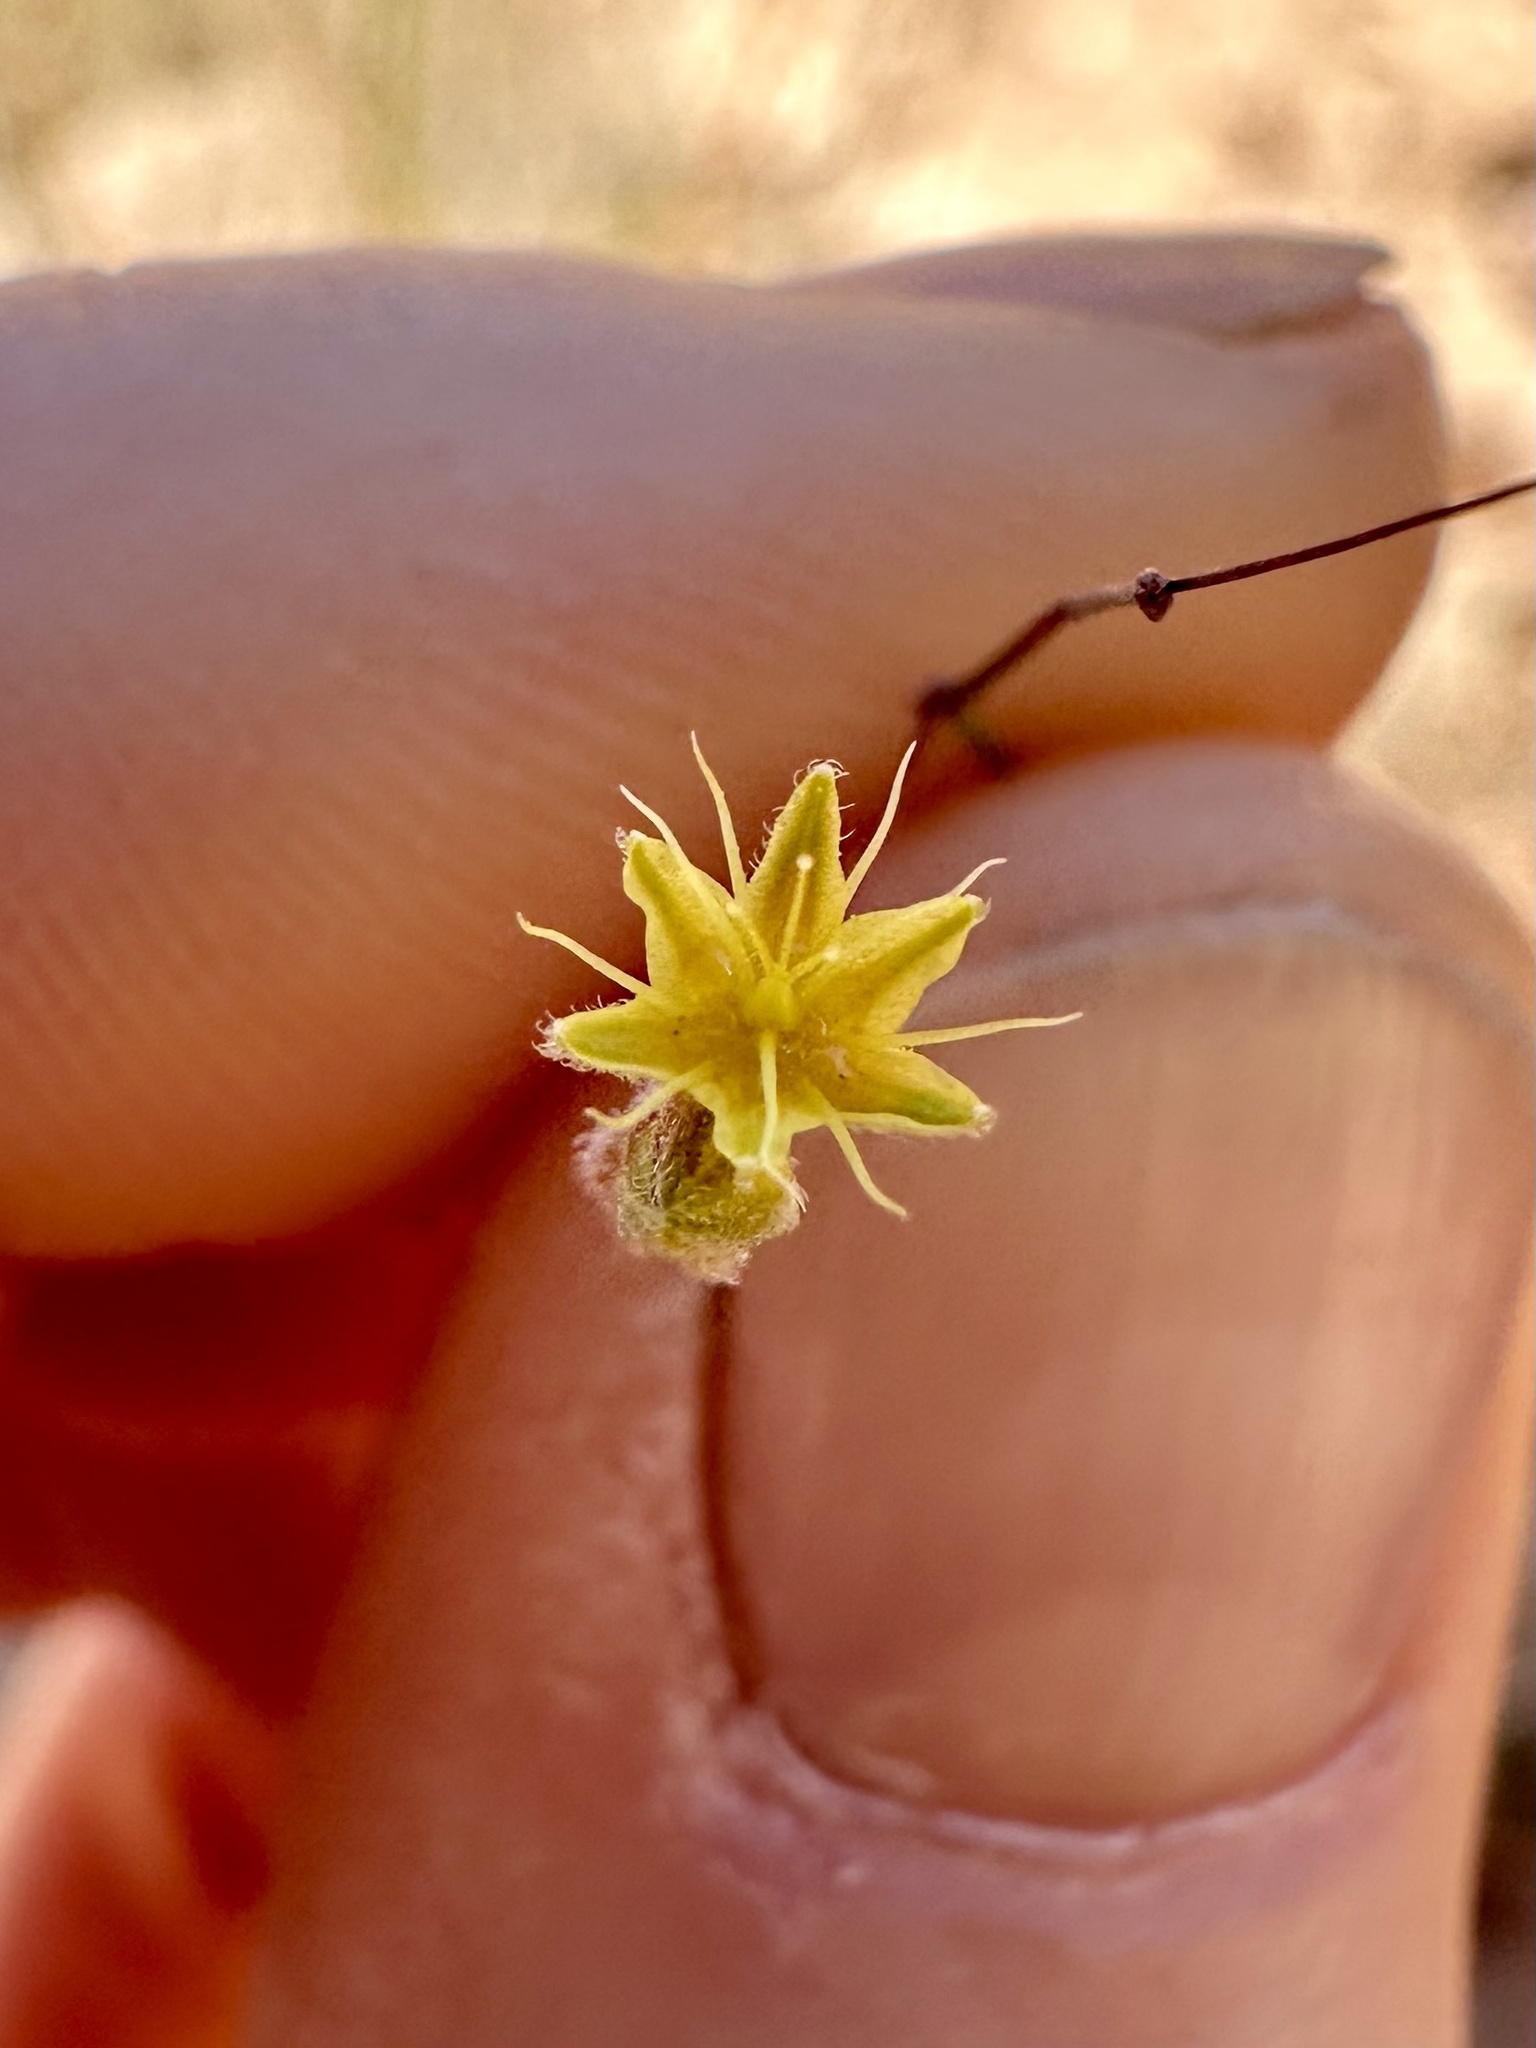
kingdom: Plantae
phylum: Tracheophyta
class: Magnoliopsida
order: Caryophyllales
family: Polygonaceae
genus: Eriogonum
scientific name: Eriogonum inflatum
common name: Desert trumpet
